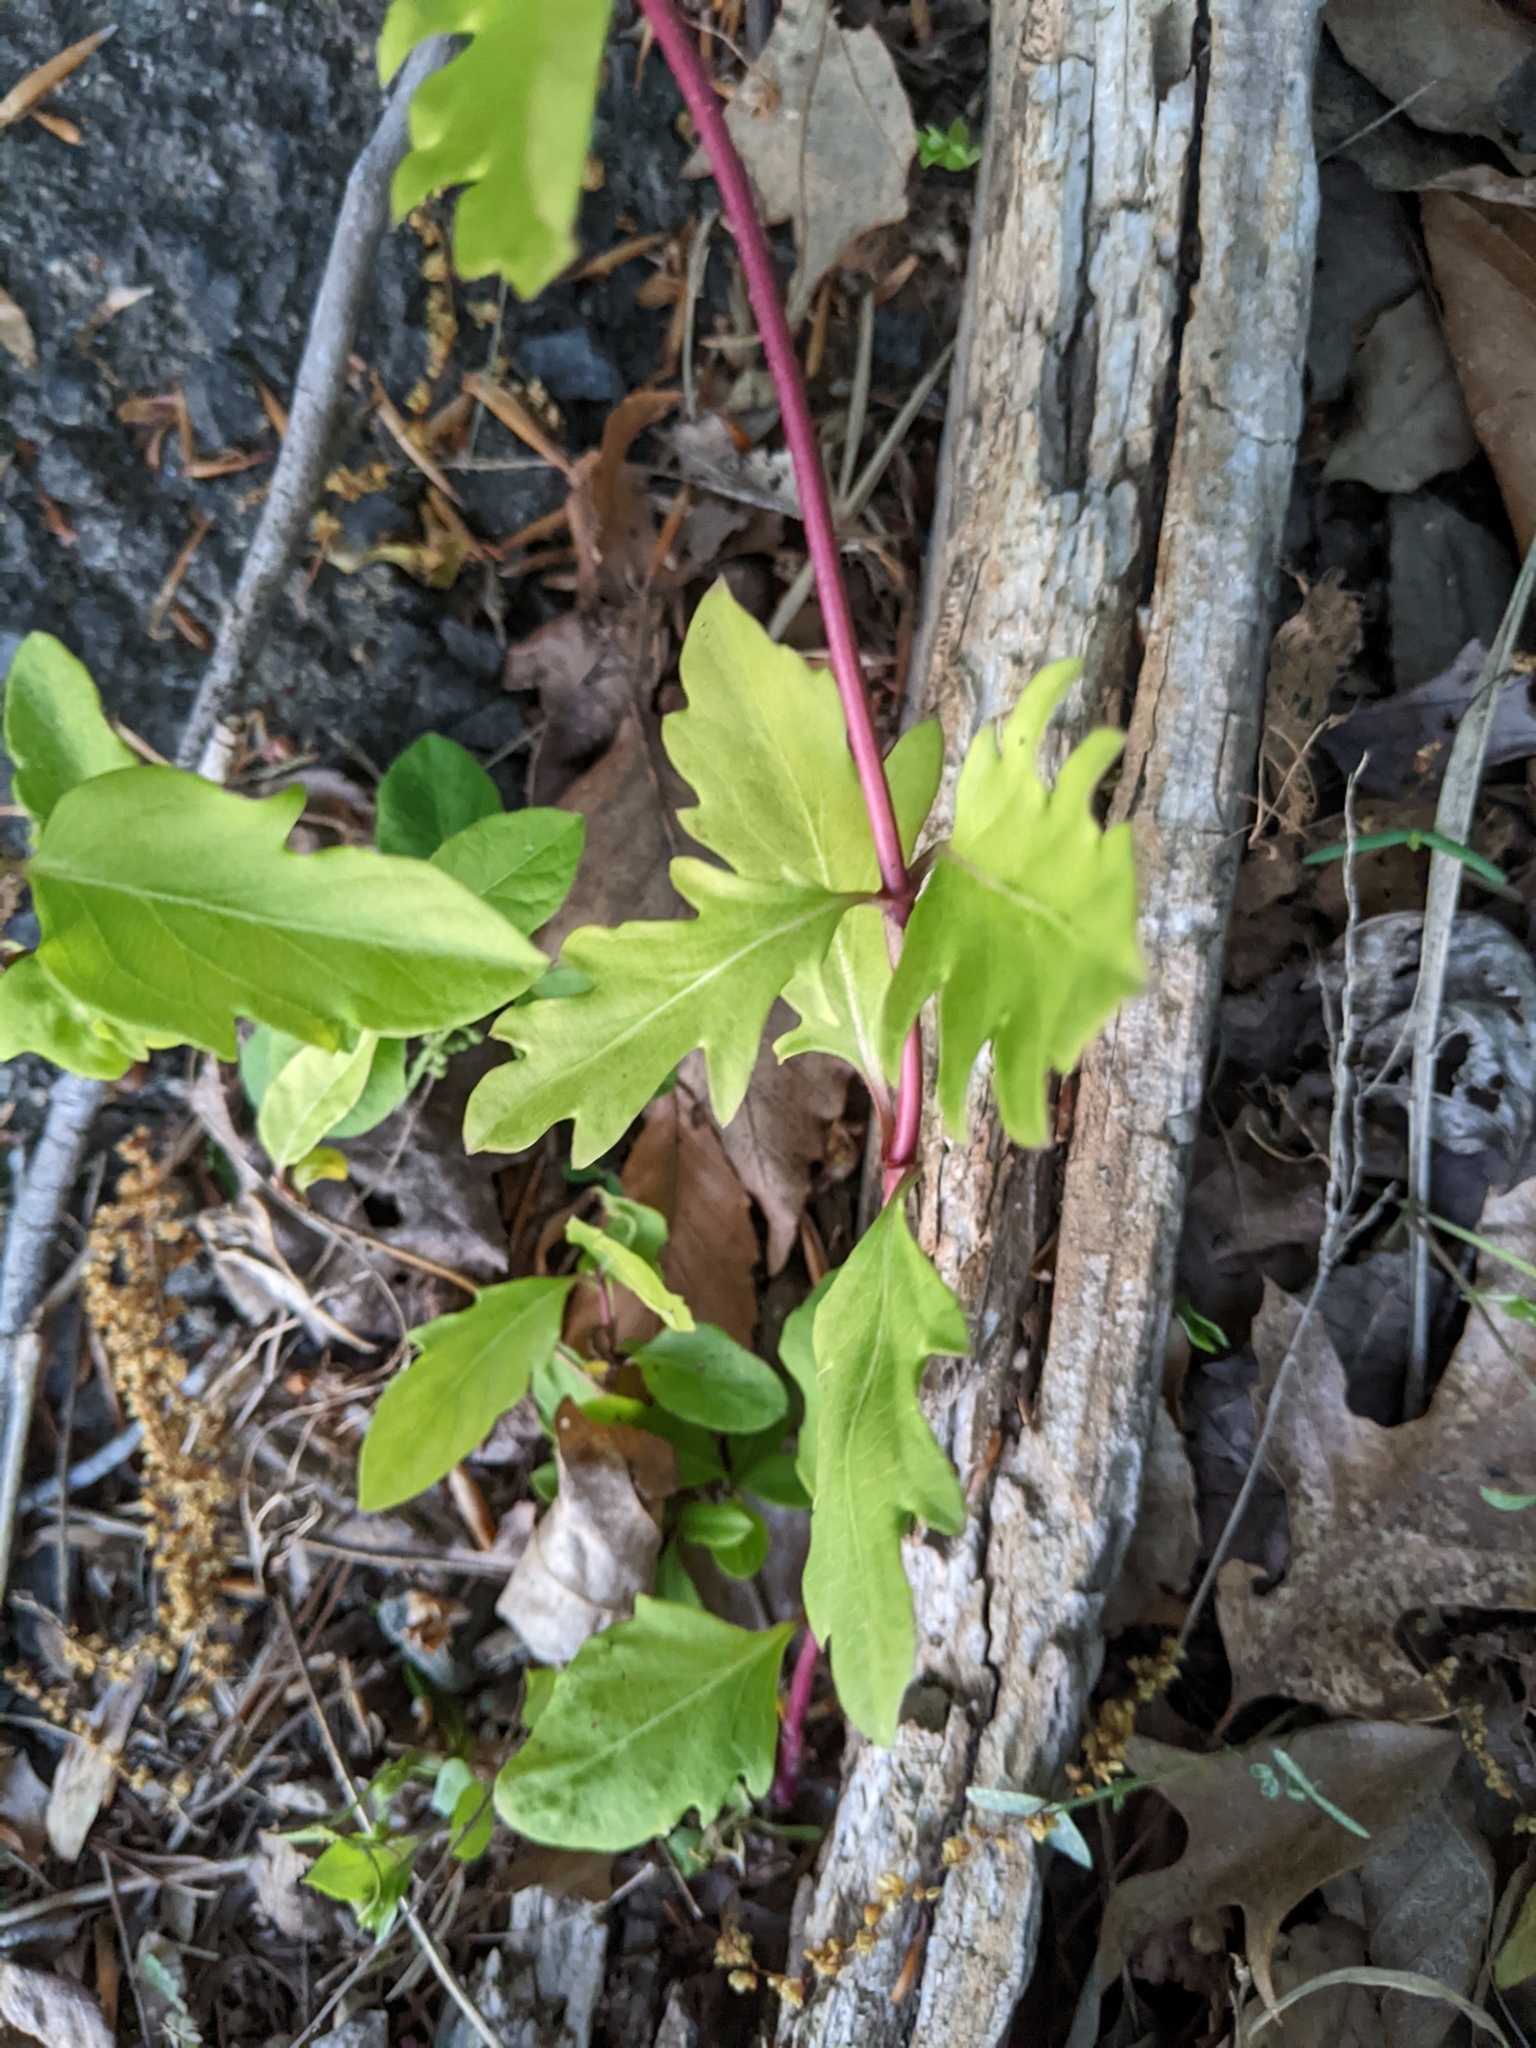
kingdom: Plantae
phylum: Tracheophyta
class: Magnoliopsida
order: Dipsacales
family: Caprifoliaceae
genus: Lonicera
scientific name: Lonicera japonica
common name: Japanese honeysuckle
